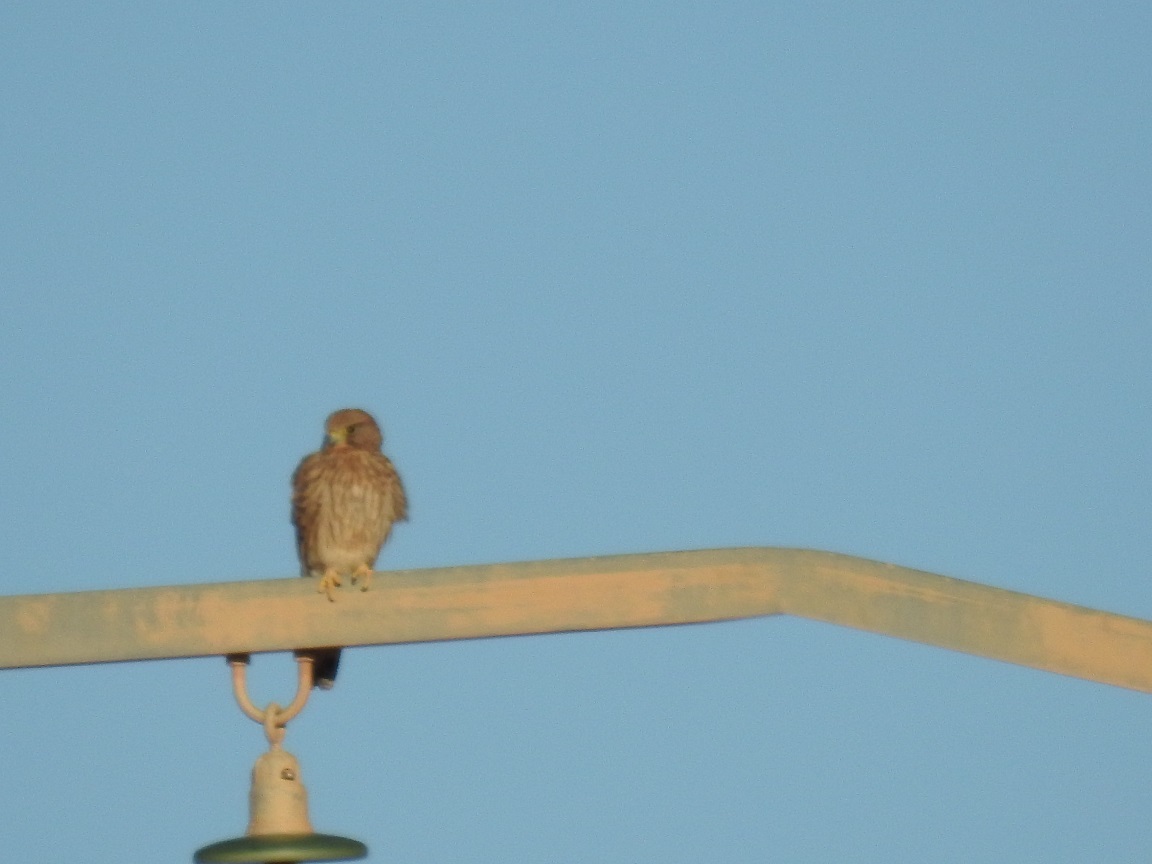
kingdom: Animalia
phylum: Chordata
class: Aves
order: Falconiformes
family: Falconidae
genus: Falco
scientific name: Falco tinnunculus
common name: Common kestrel
